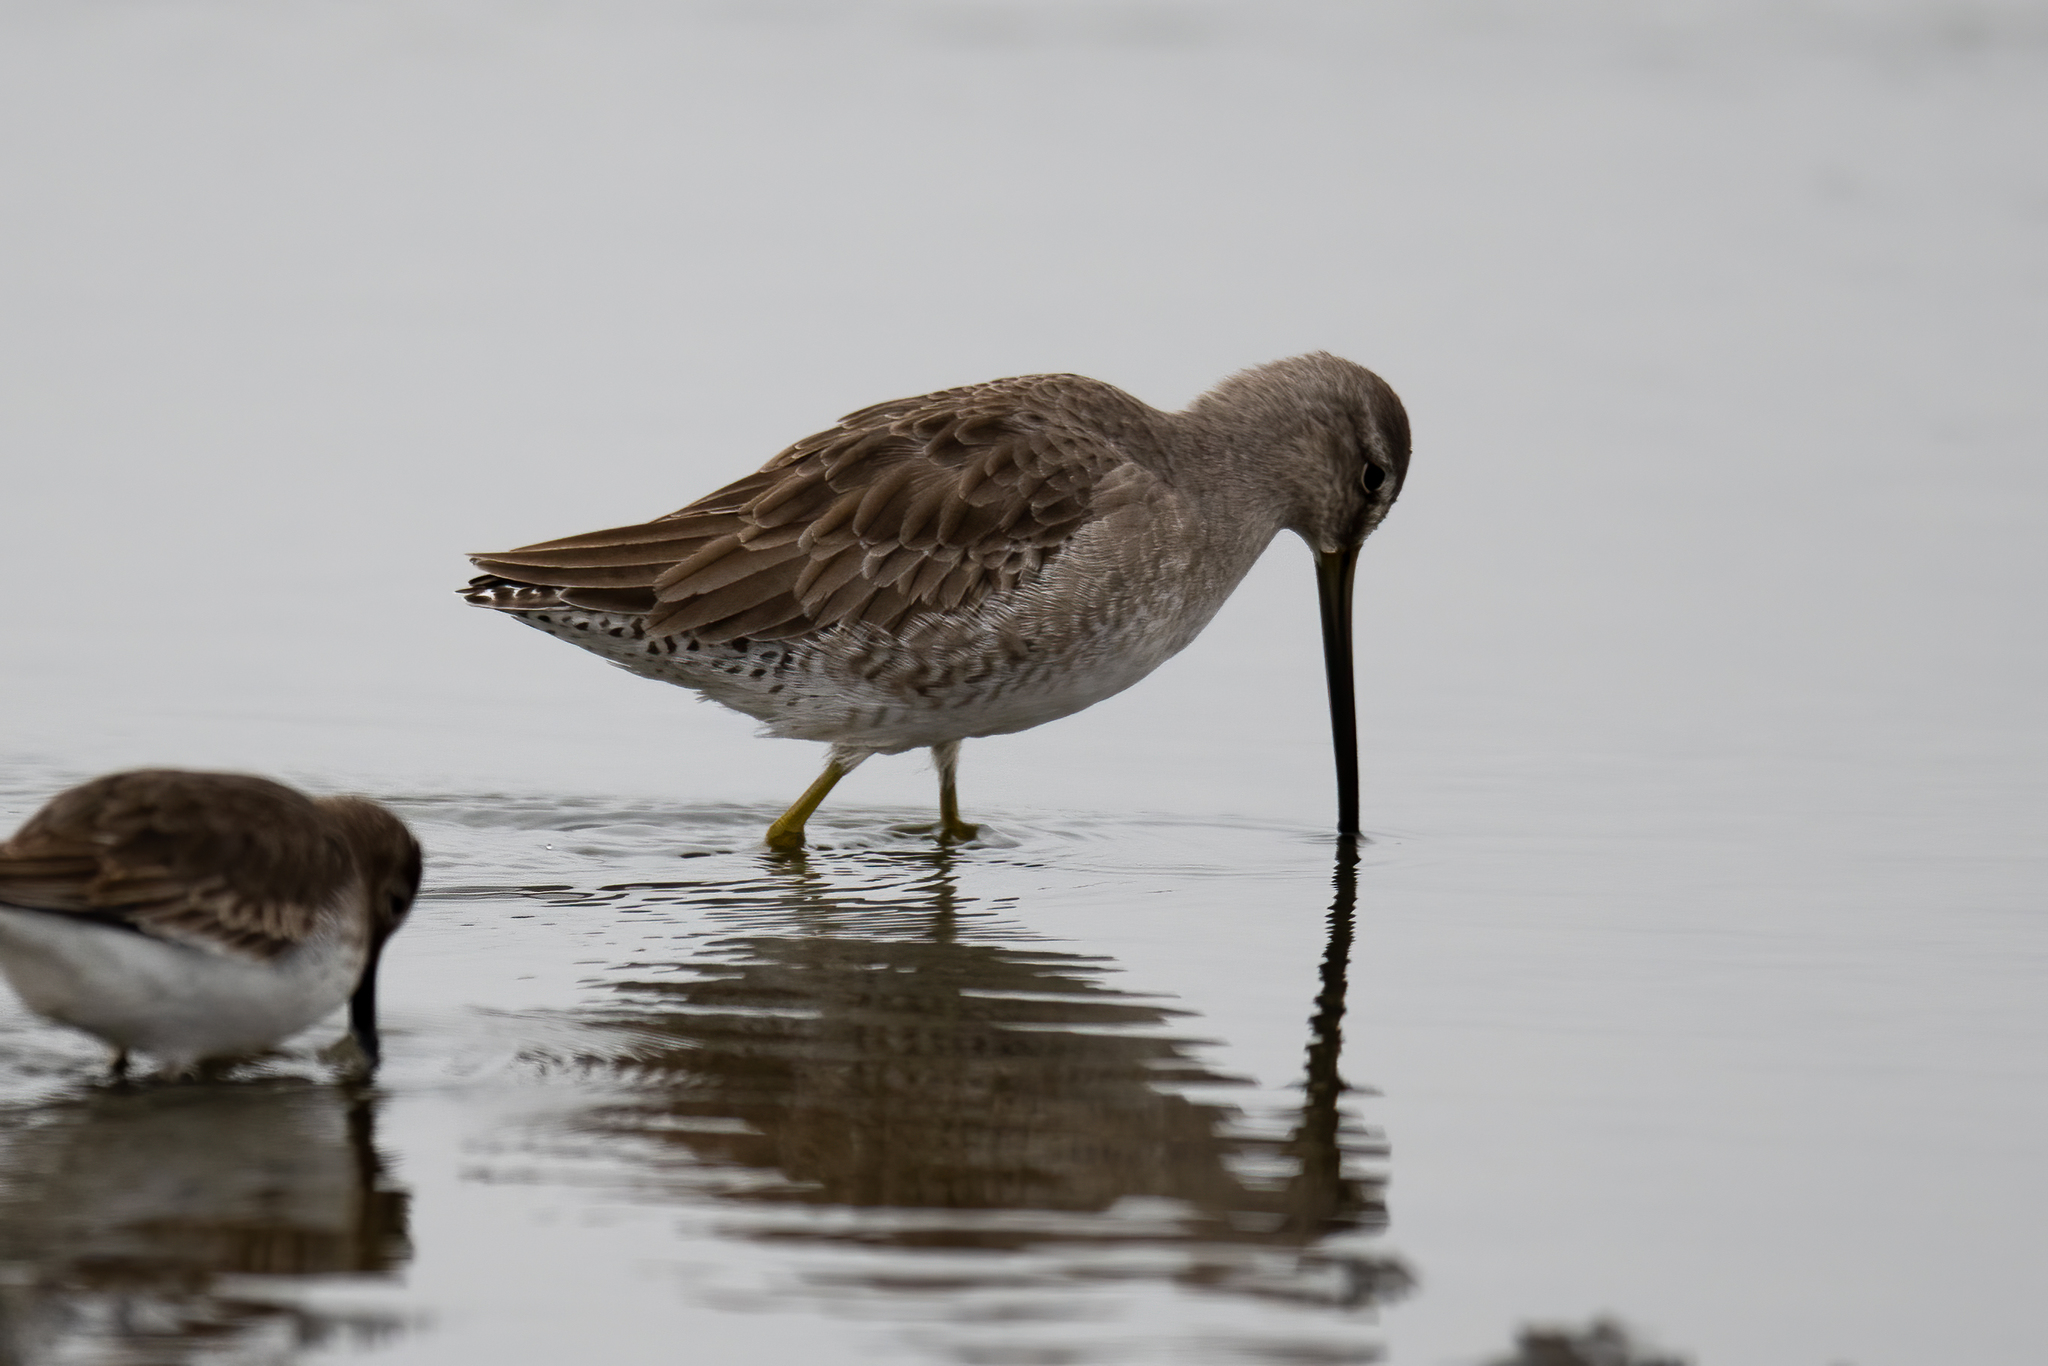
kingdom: Animalia
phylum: Chordata
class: Aves
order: Charadriiformes
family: Scolopacidae
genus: Limnodromus
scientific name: Limnodromus scolopaceus
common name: Long-billed dowitcher
